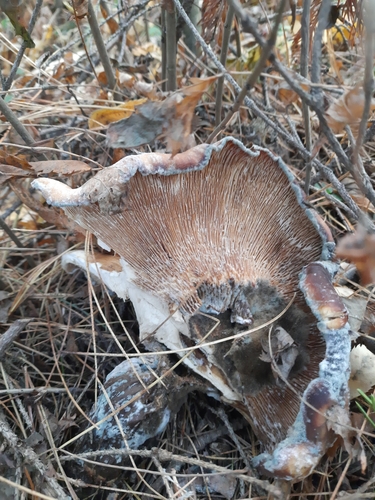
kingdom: Fungi
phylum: Basidiomycota
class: Agaricomycetes
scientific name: Agaricomycetes
